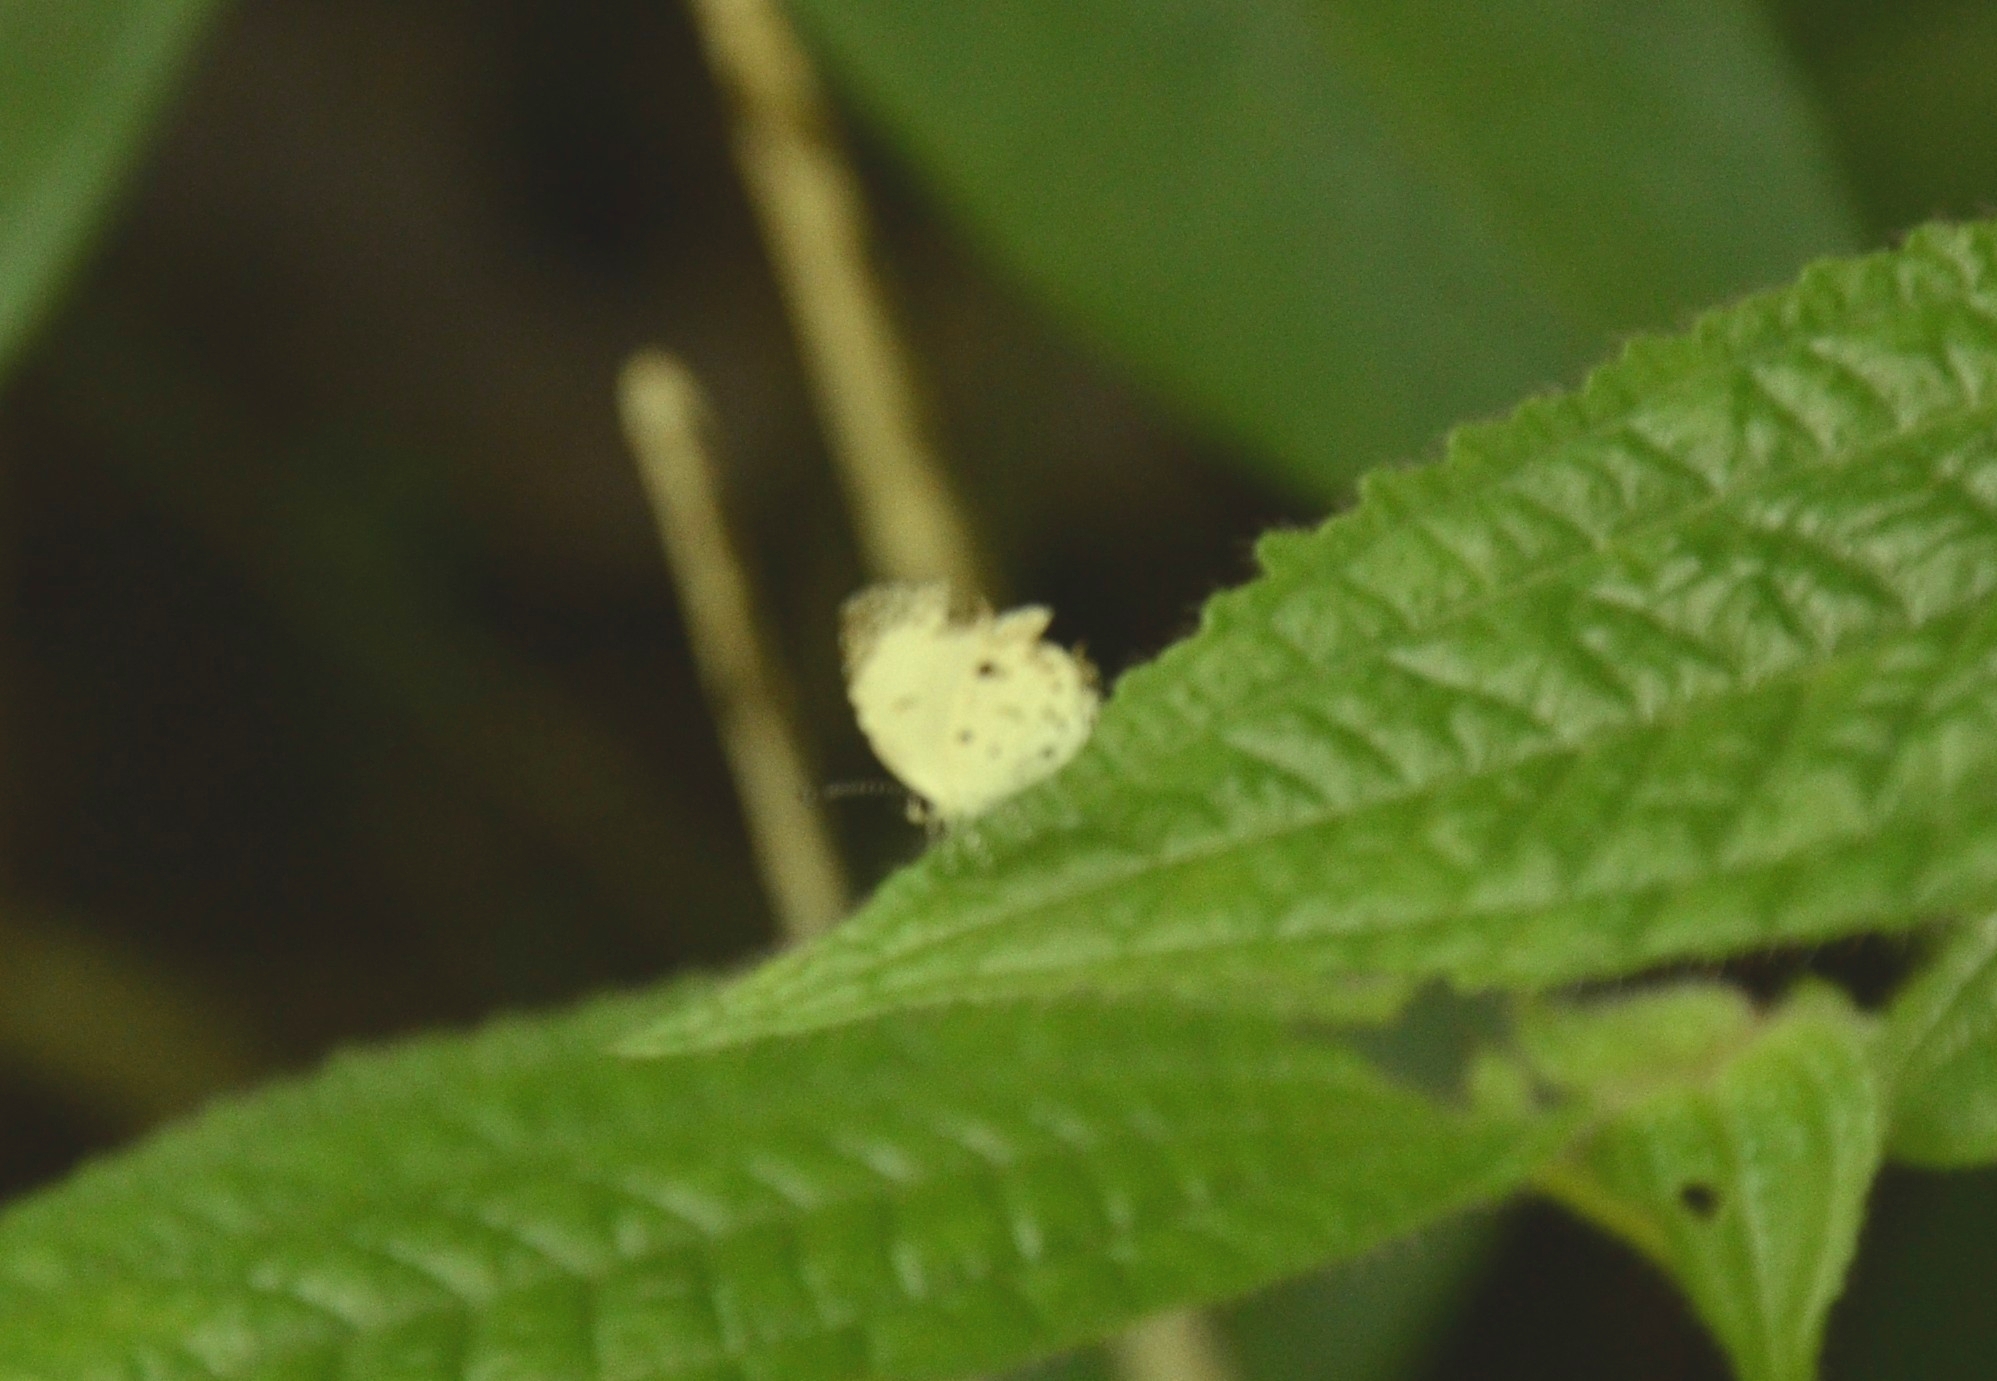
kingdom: Animalia
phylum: Arthropoda
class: Insecta
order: Lepidoptera
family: Lycaenidae
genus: Neopithecops
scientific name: Neopithecops zalmora
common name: Quaker
